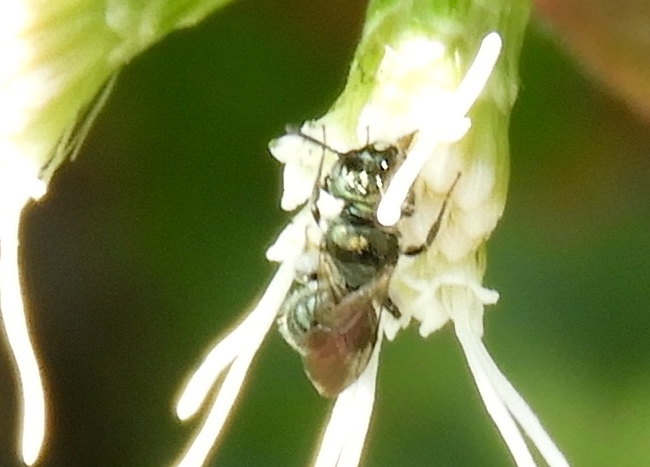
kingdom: Animalia
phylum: Arthropoda
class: Insecta
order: Hymenoptera
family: Apidae
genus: Ceratina
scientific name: Ceratina
